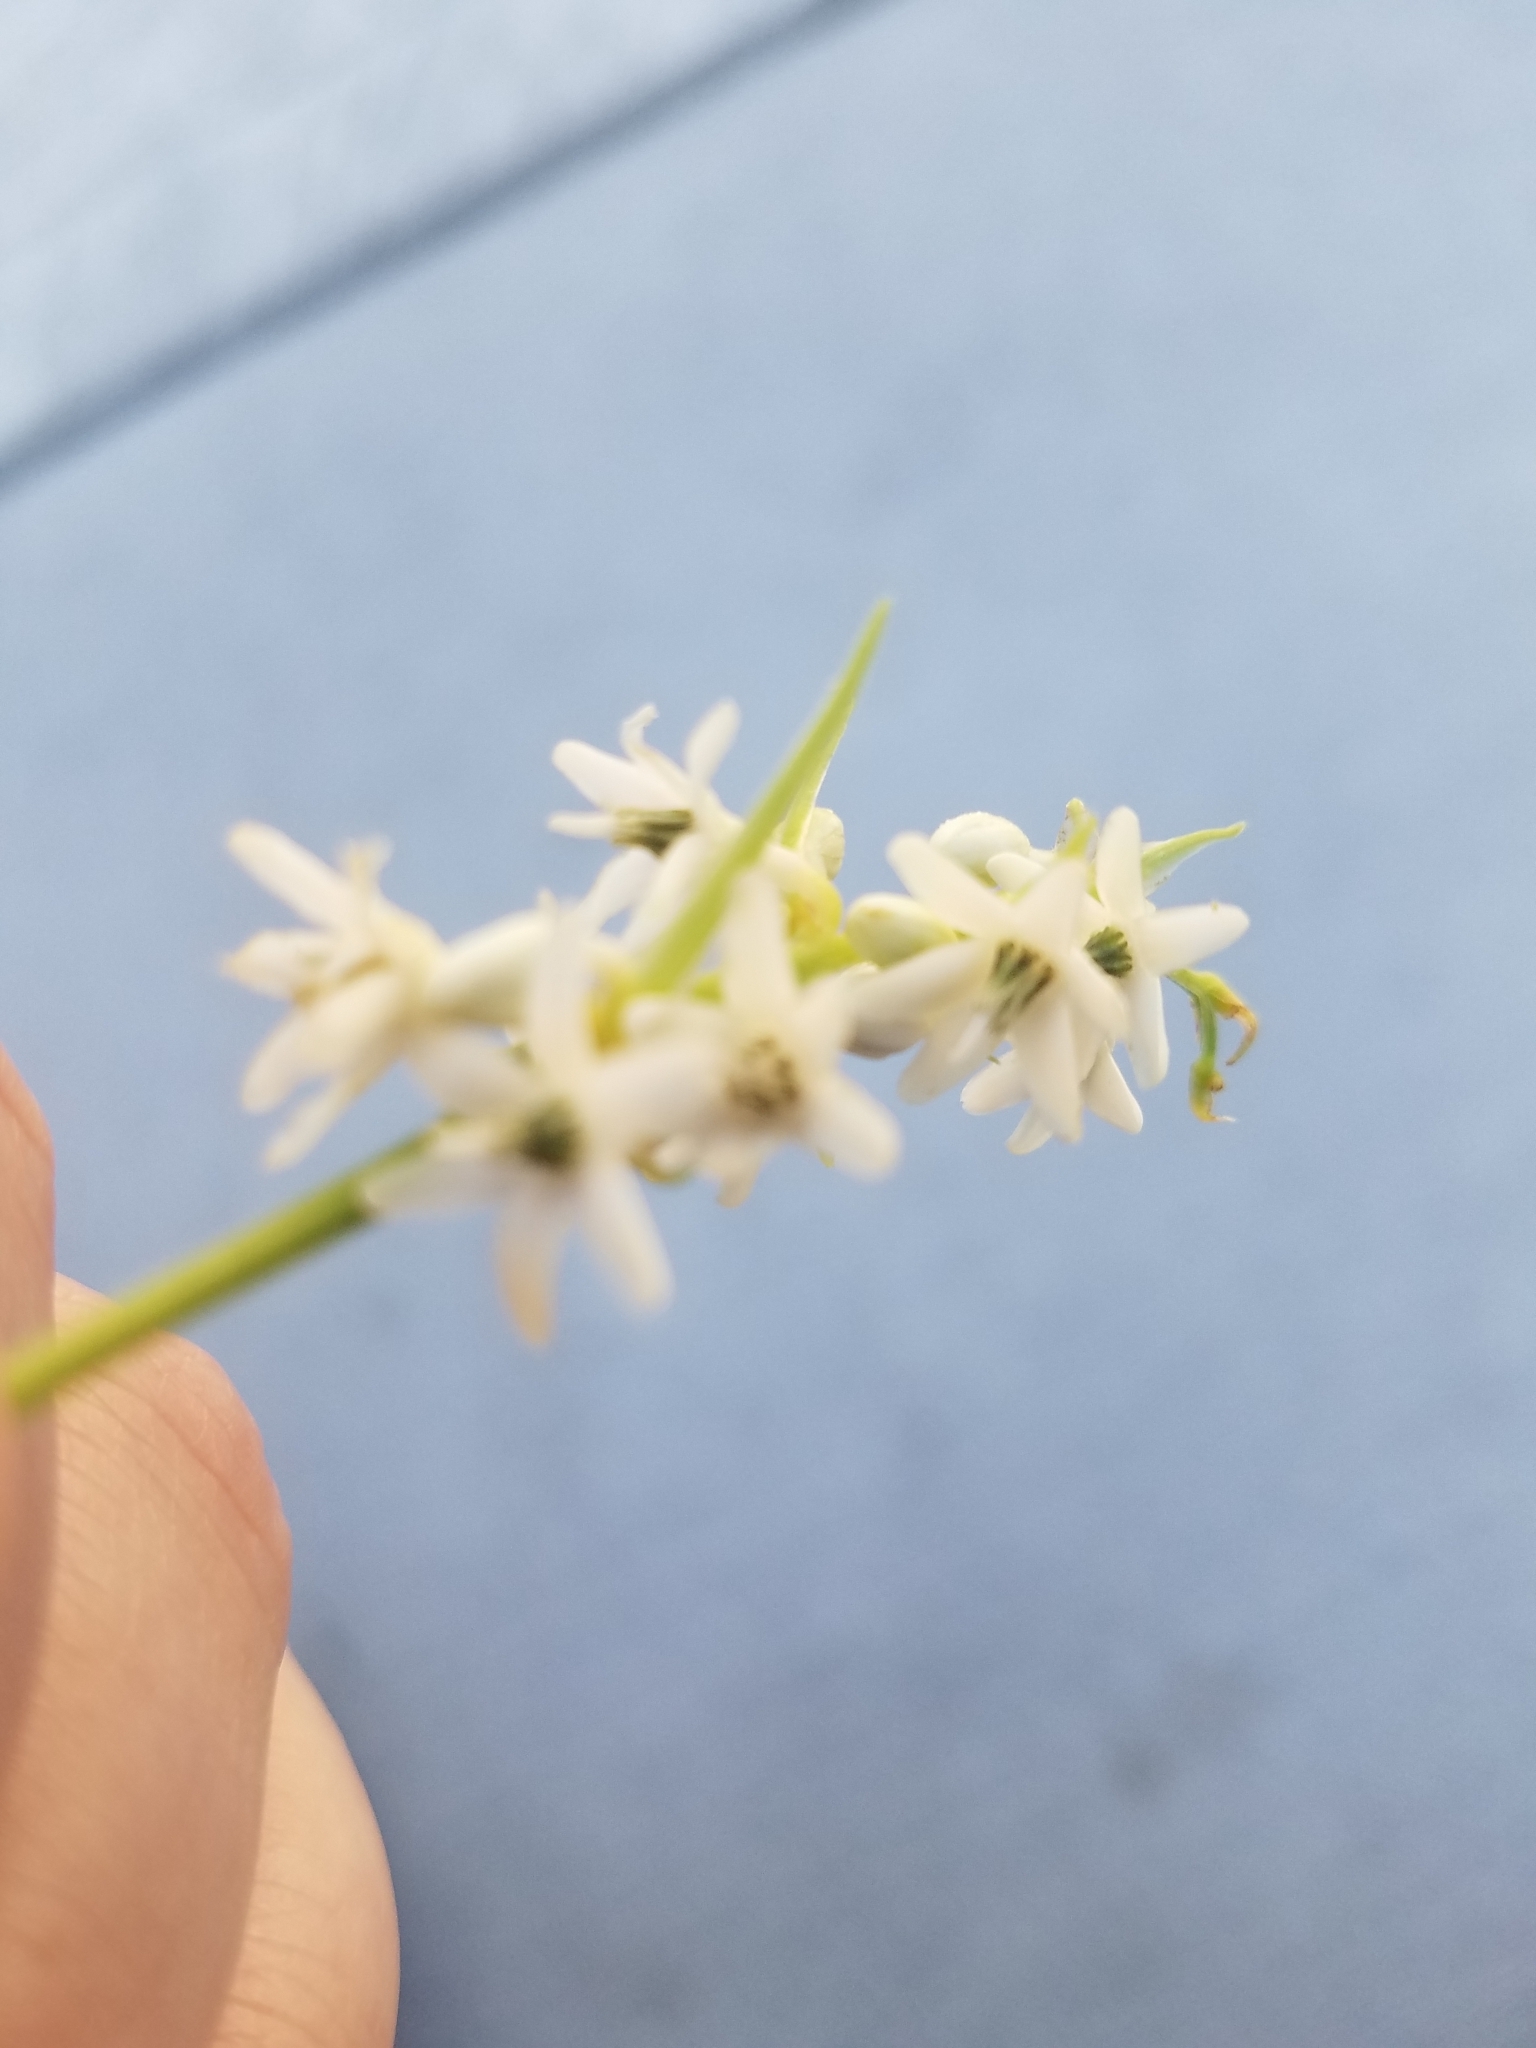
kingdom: Plantae
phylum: Tracheophyta
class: Magnoliopsida
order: Fabales
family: Fabaceae
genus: Melilotus
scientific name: Melilotus albus
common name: White melilot
